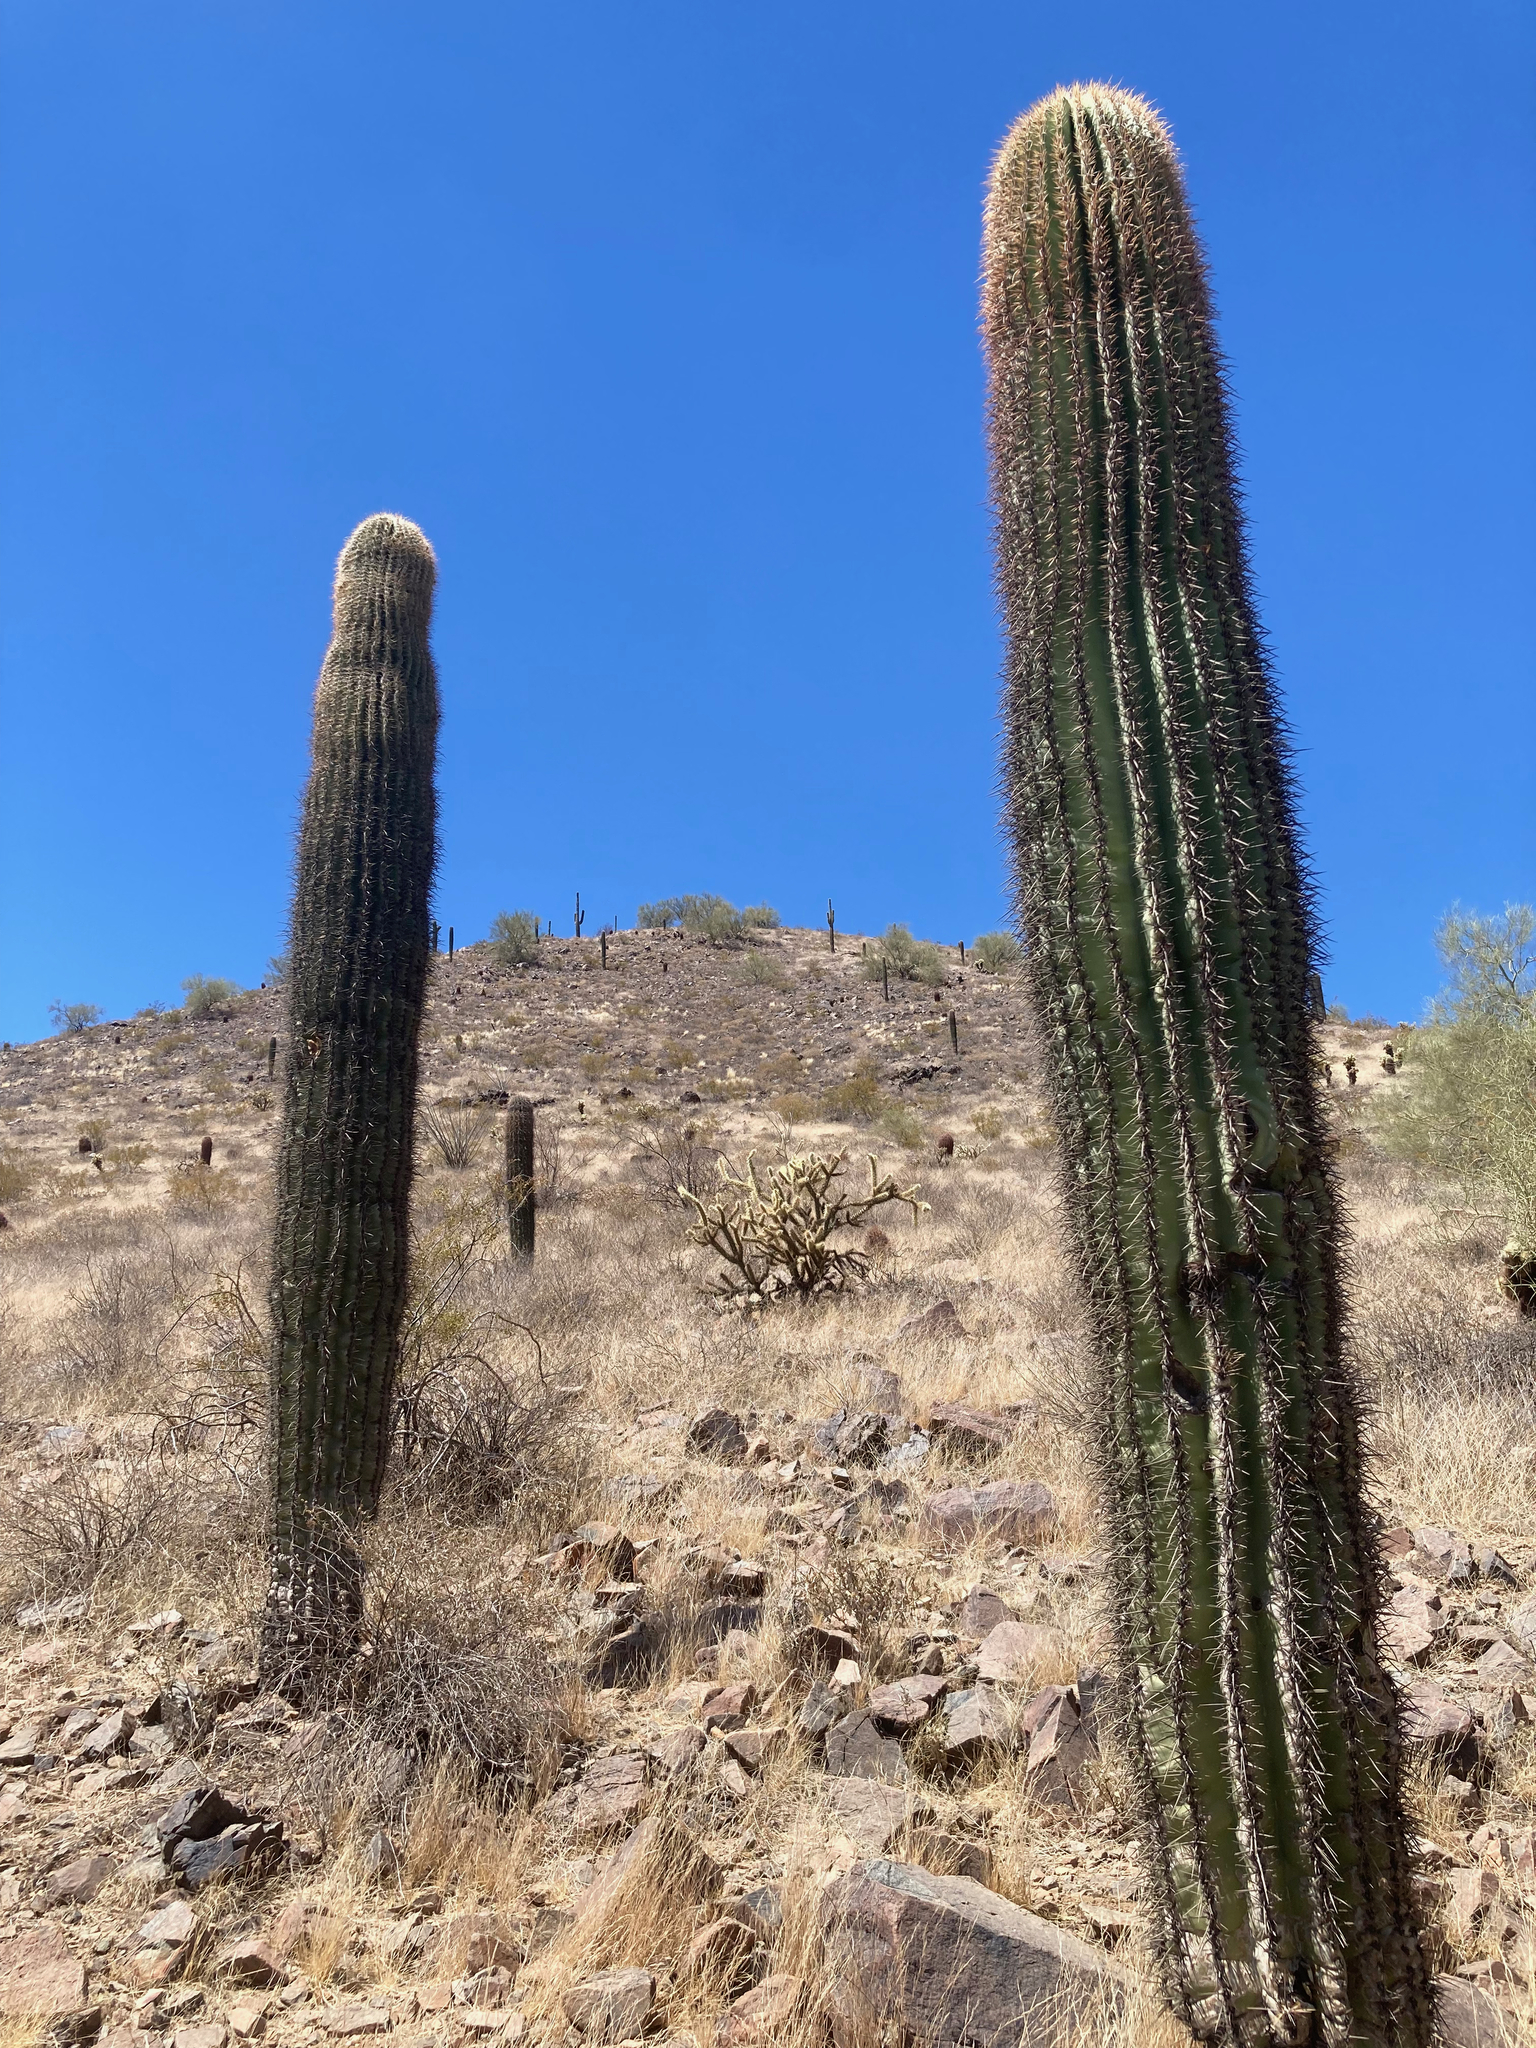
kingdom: Plantae
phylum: Tracheophyta
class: Magnoliopsida
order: Caryophyllales
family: Cactaceae
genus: Carnegiea
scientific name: Carnegiea gigantea
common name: Saguaro
